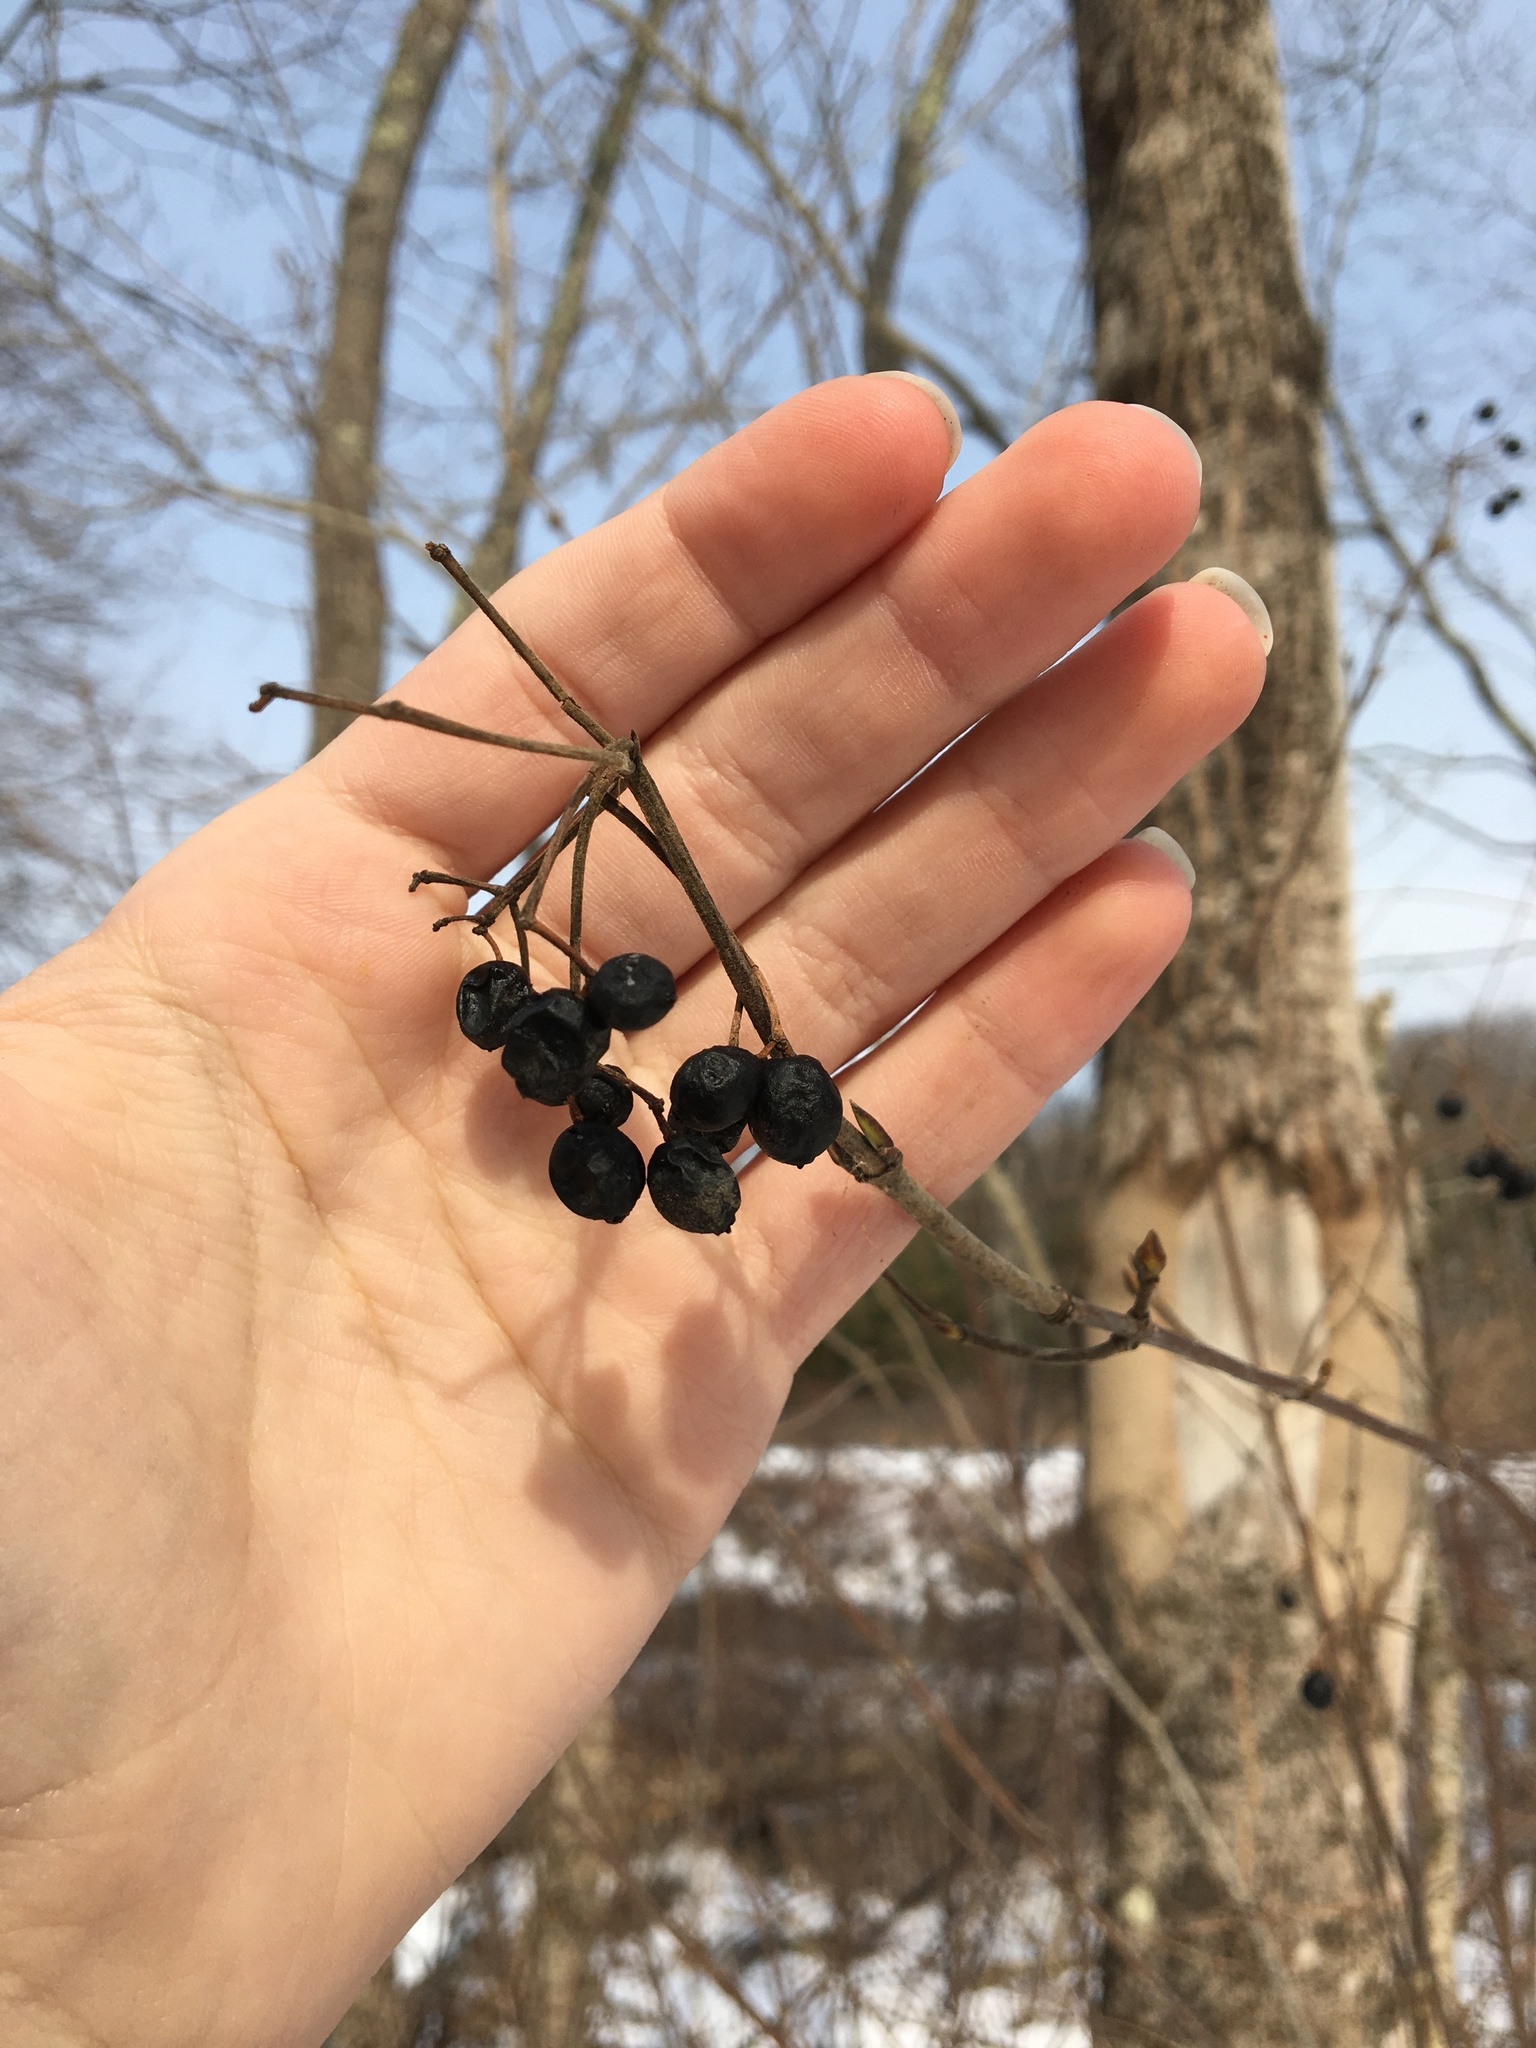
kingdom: Plantae
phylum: Tracheophyta
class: Magnoliopsida
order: Dipsacales
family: Viburnaceae
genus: Viburnum
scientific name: Viburnum acerifolium
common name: Dockmackie
